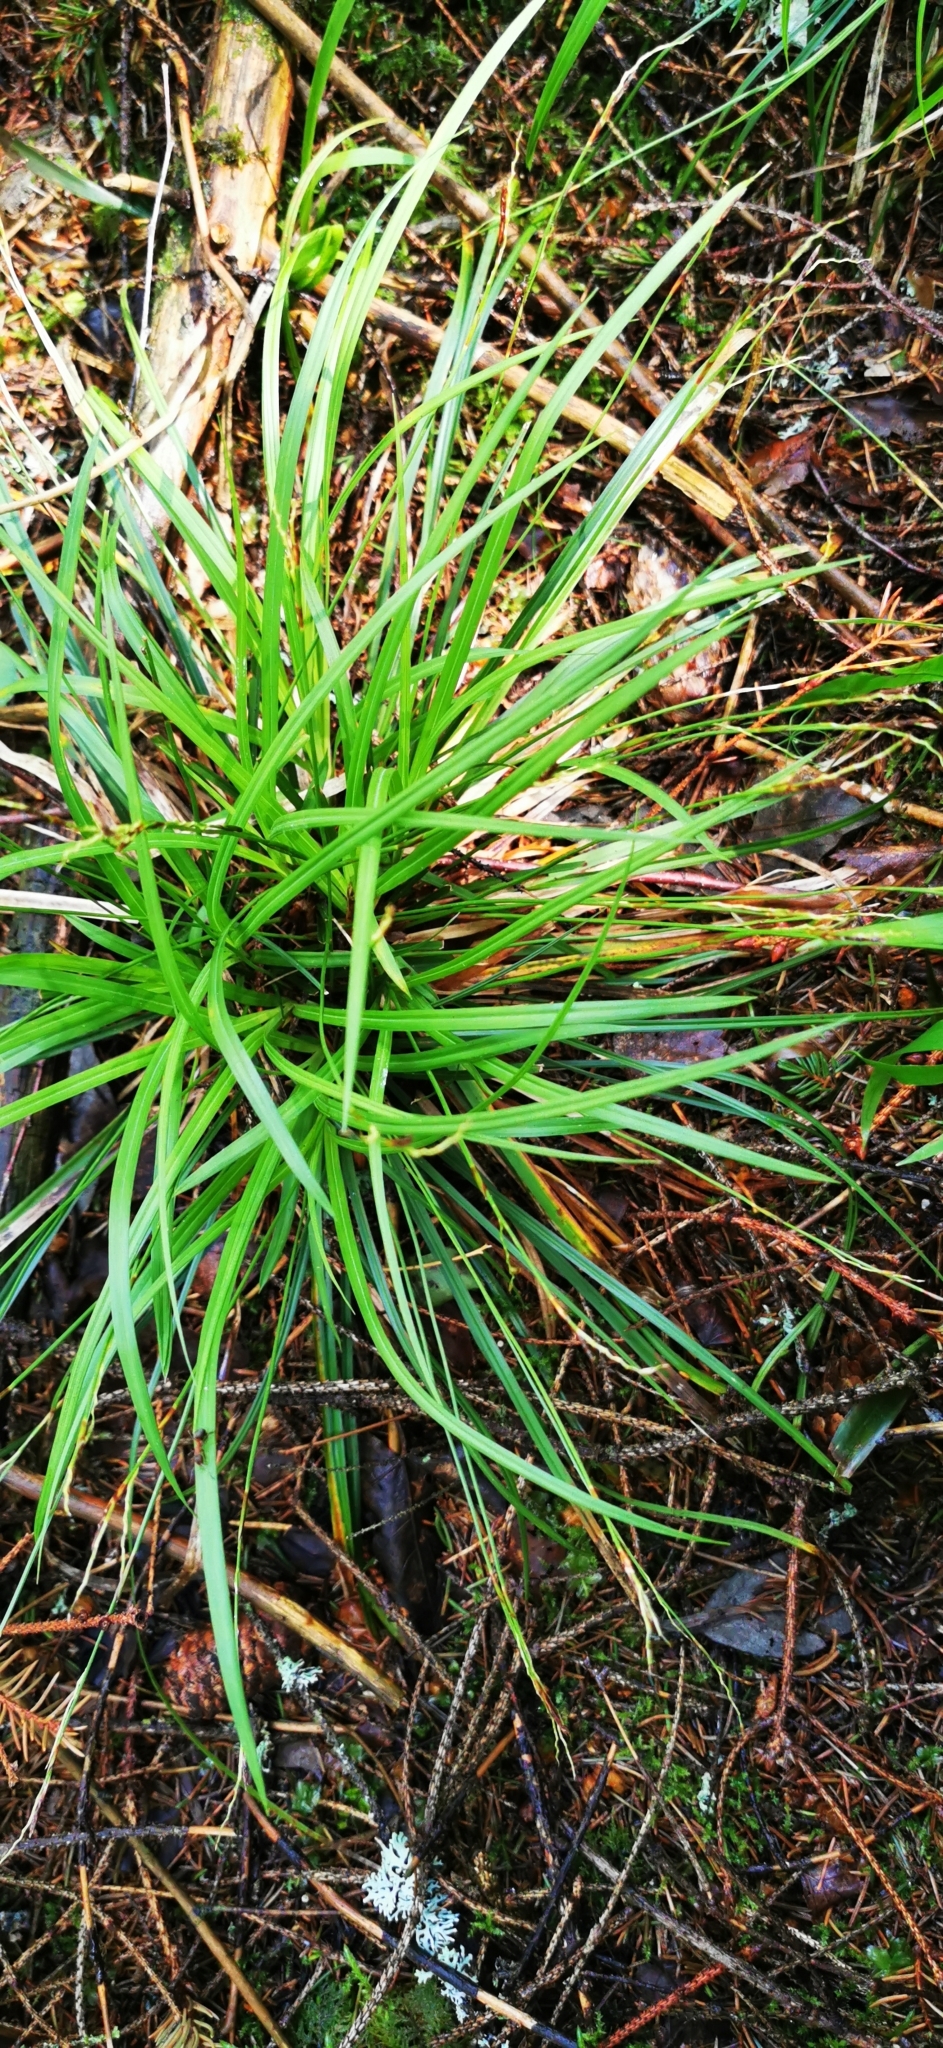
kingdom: Plantae
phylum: Tracheophyta
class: Liliopsida
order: Poales
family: Cyperaceae
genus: Carex
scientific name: Carex digitata
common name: Fingered sedge
